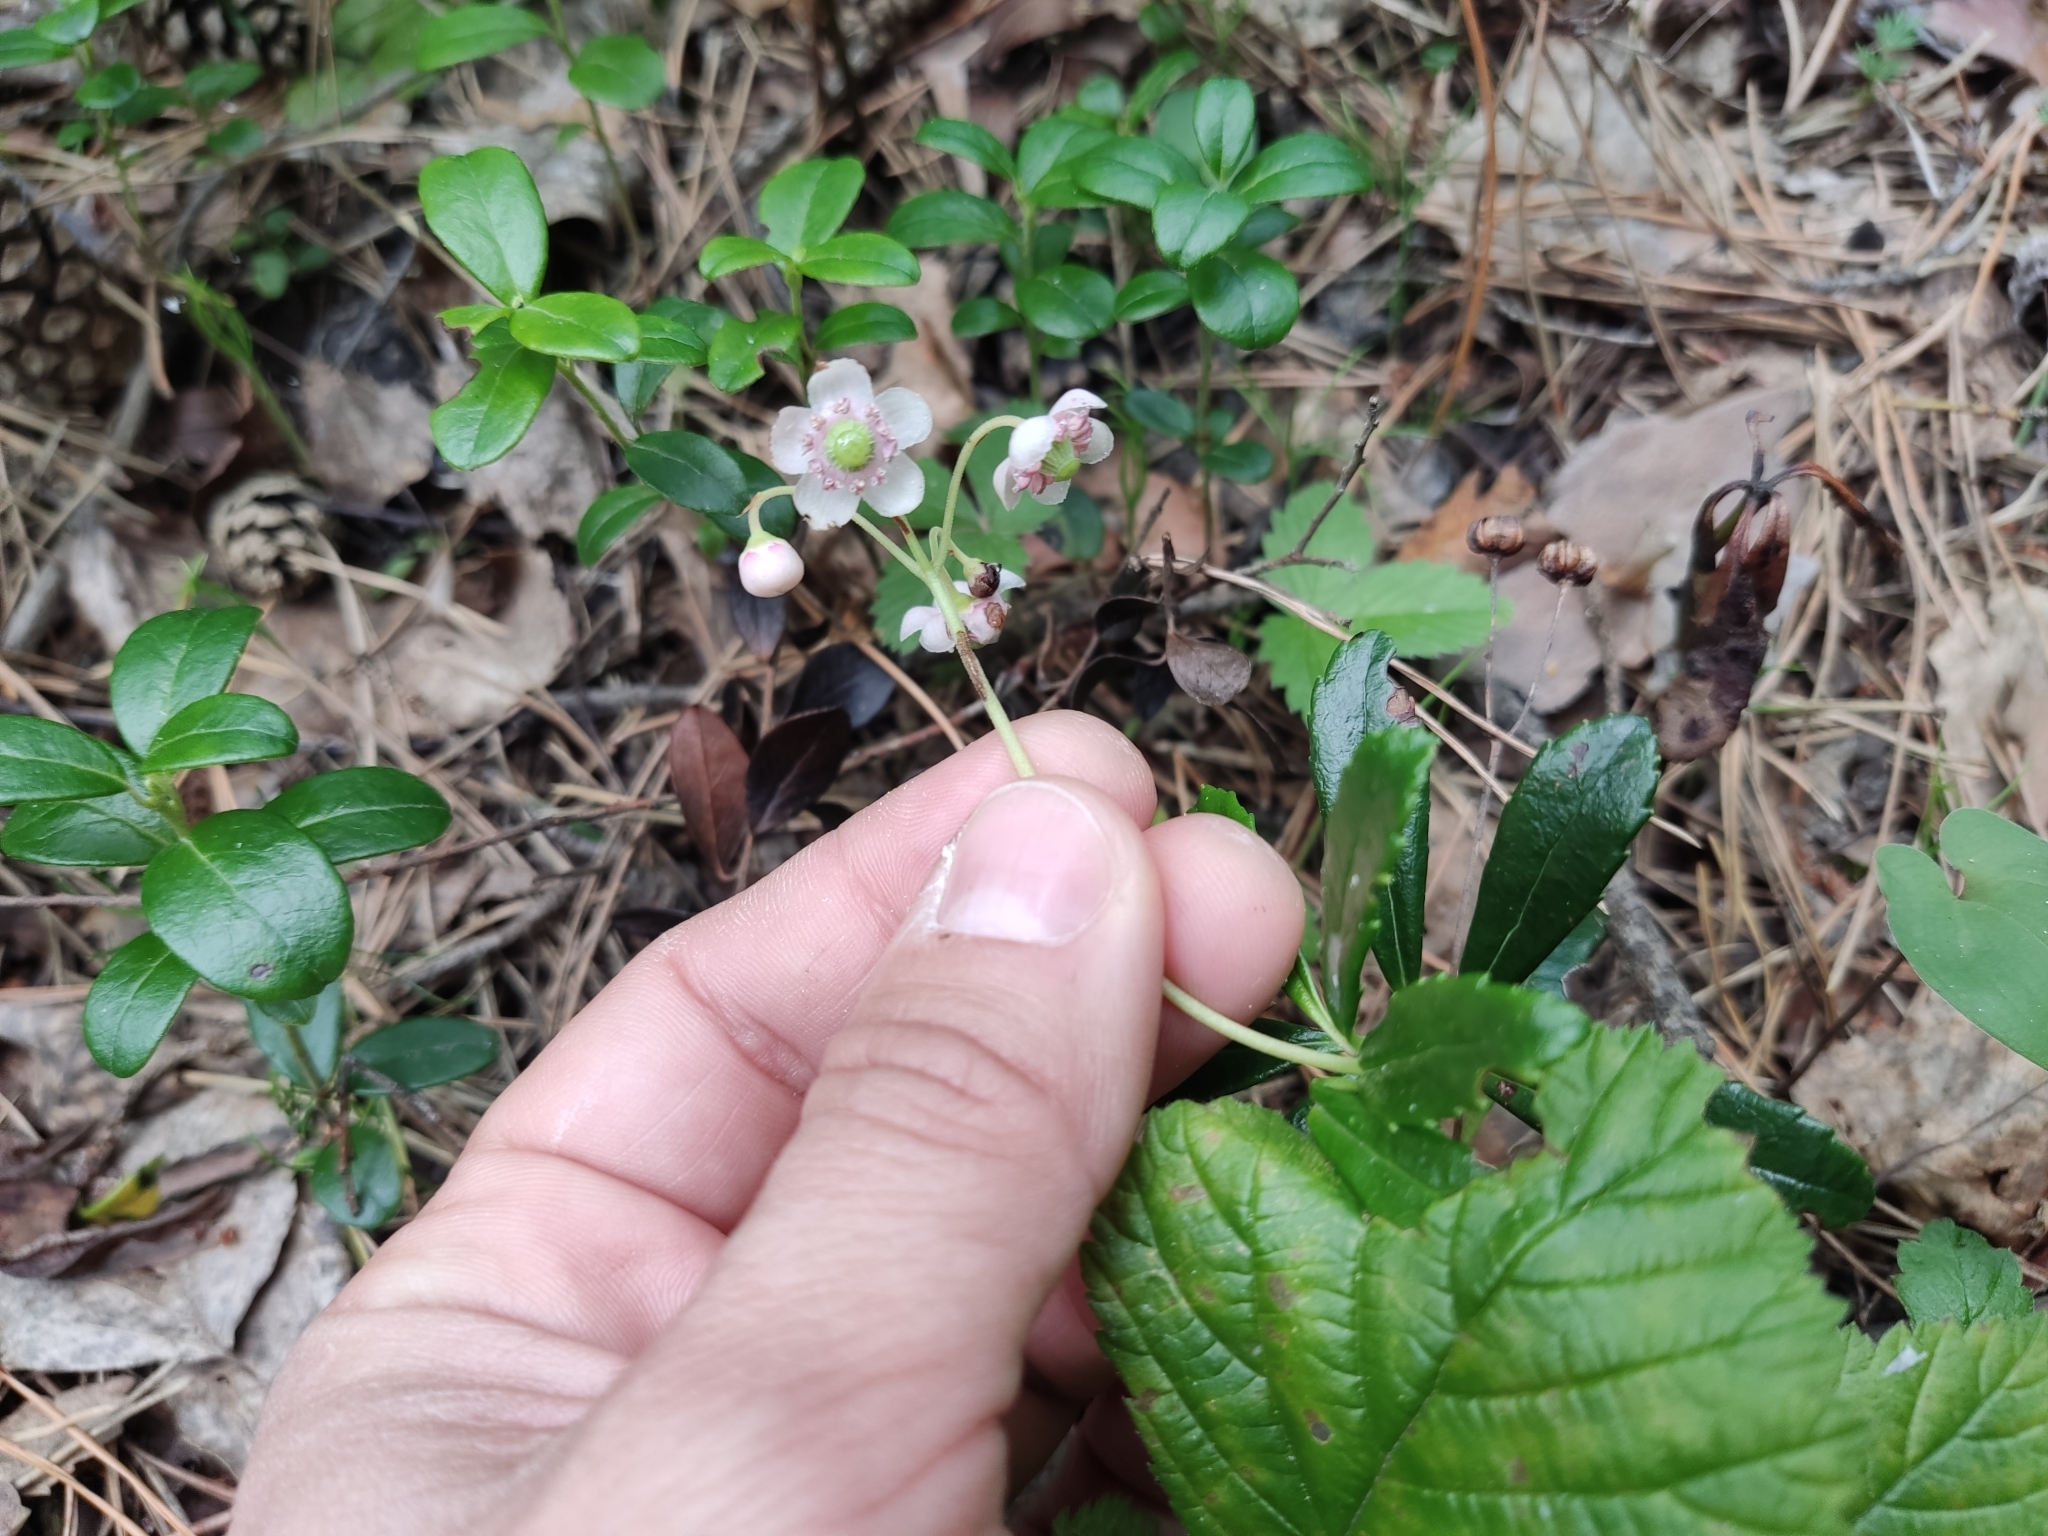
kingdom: Plantae
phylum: Tracheophyta
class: Magnoliopsida
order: Ericales
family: Ericaceae
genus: Chimaphila
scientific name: Chimaphila umbellata
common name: Pipsissewa
